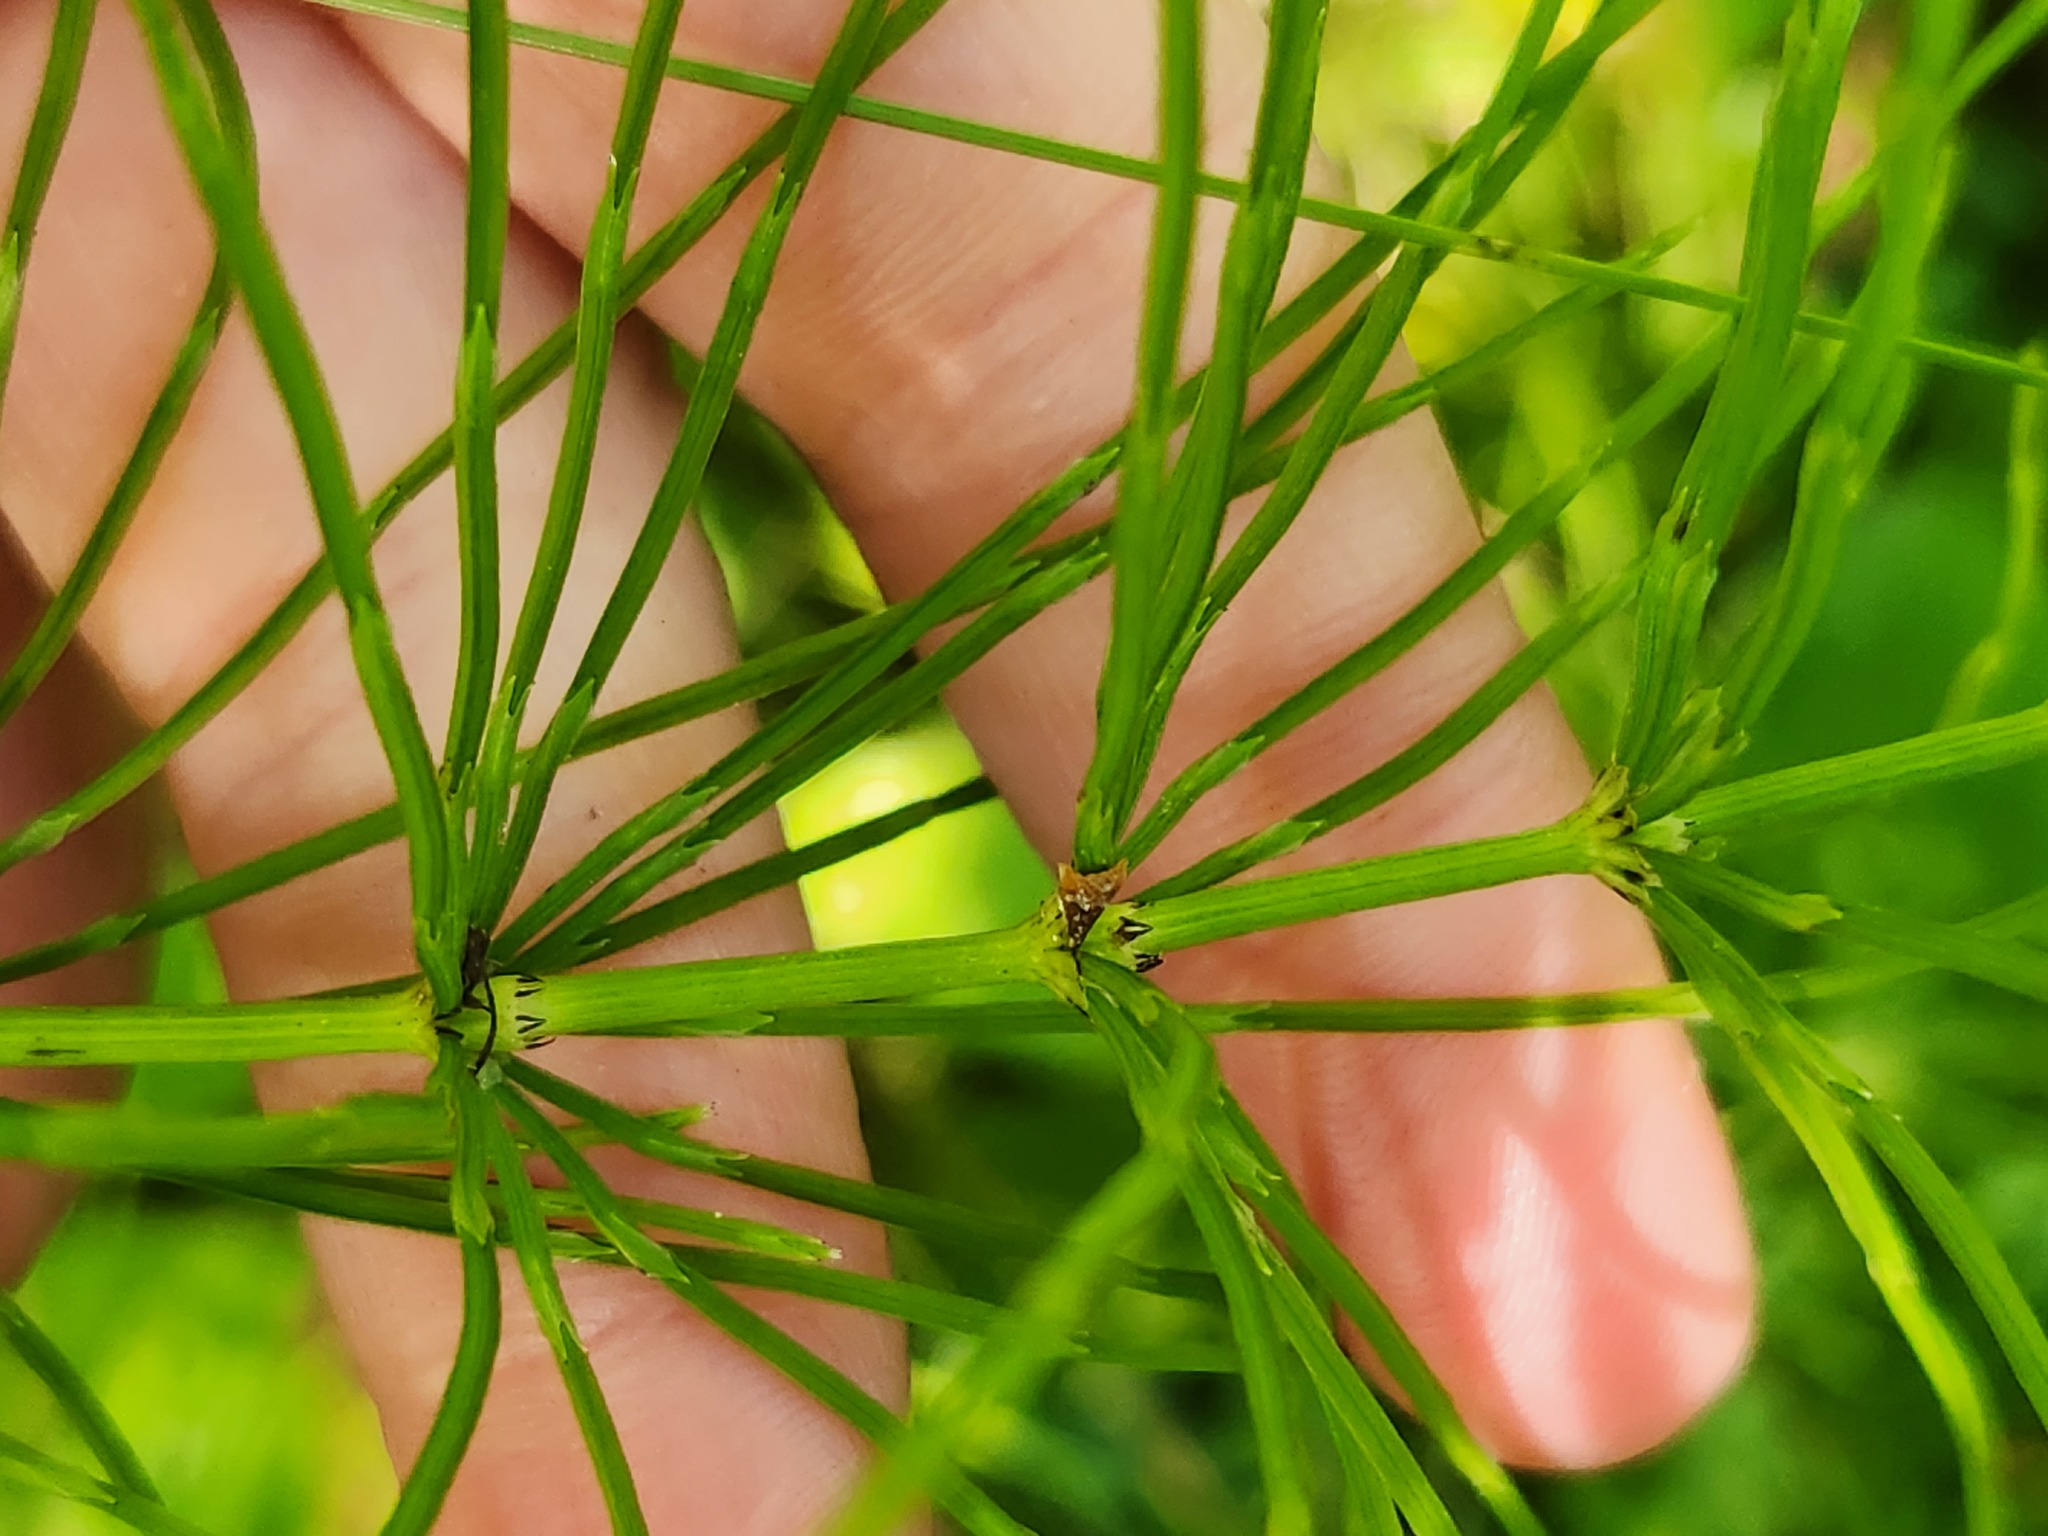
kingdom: Plantae
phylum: Tracheophyta
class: Polypodiopsida
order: Equisetales
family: Equisetaceae
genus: Equisetum
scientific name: Equisetum arvense
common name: Field horsetail
